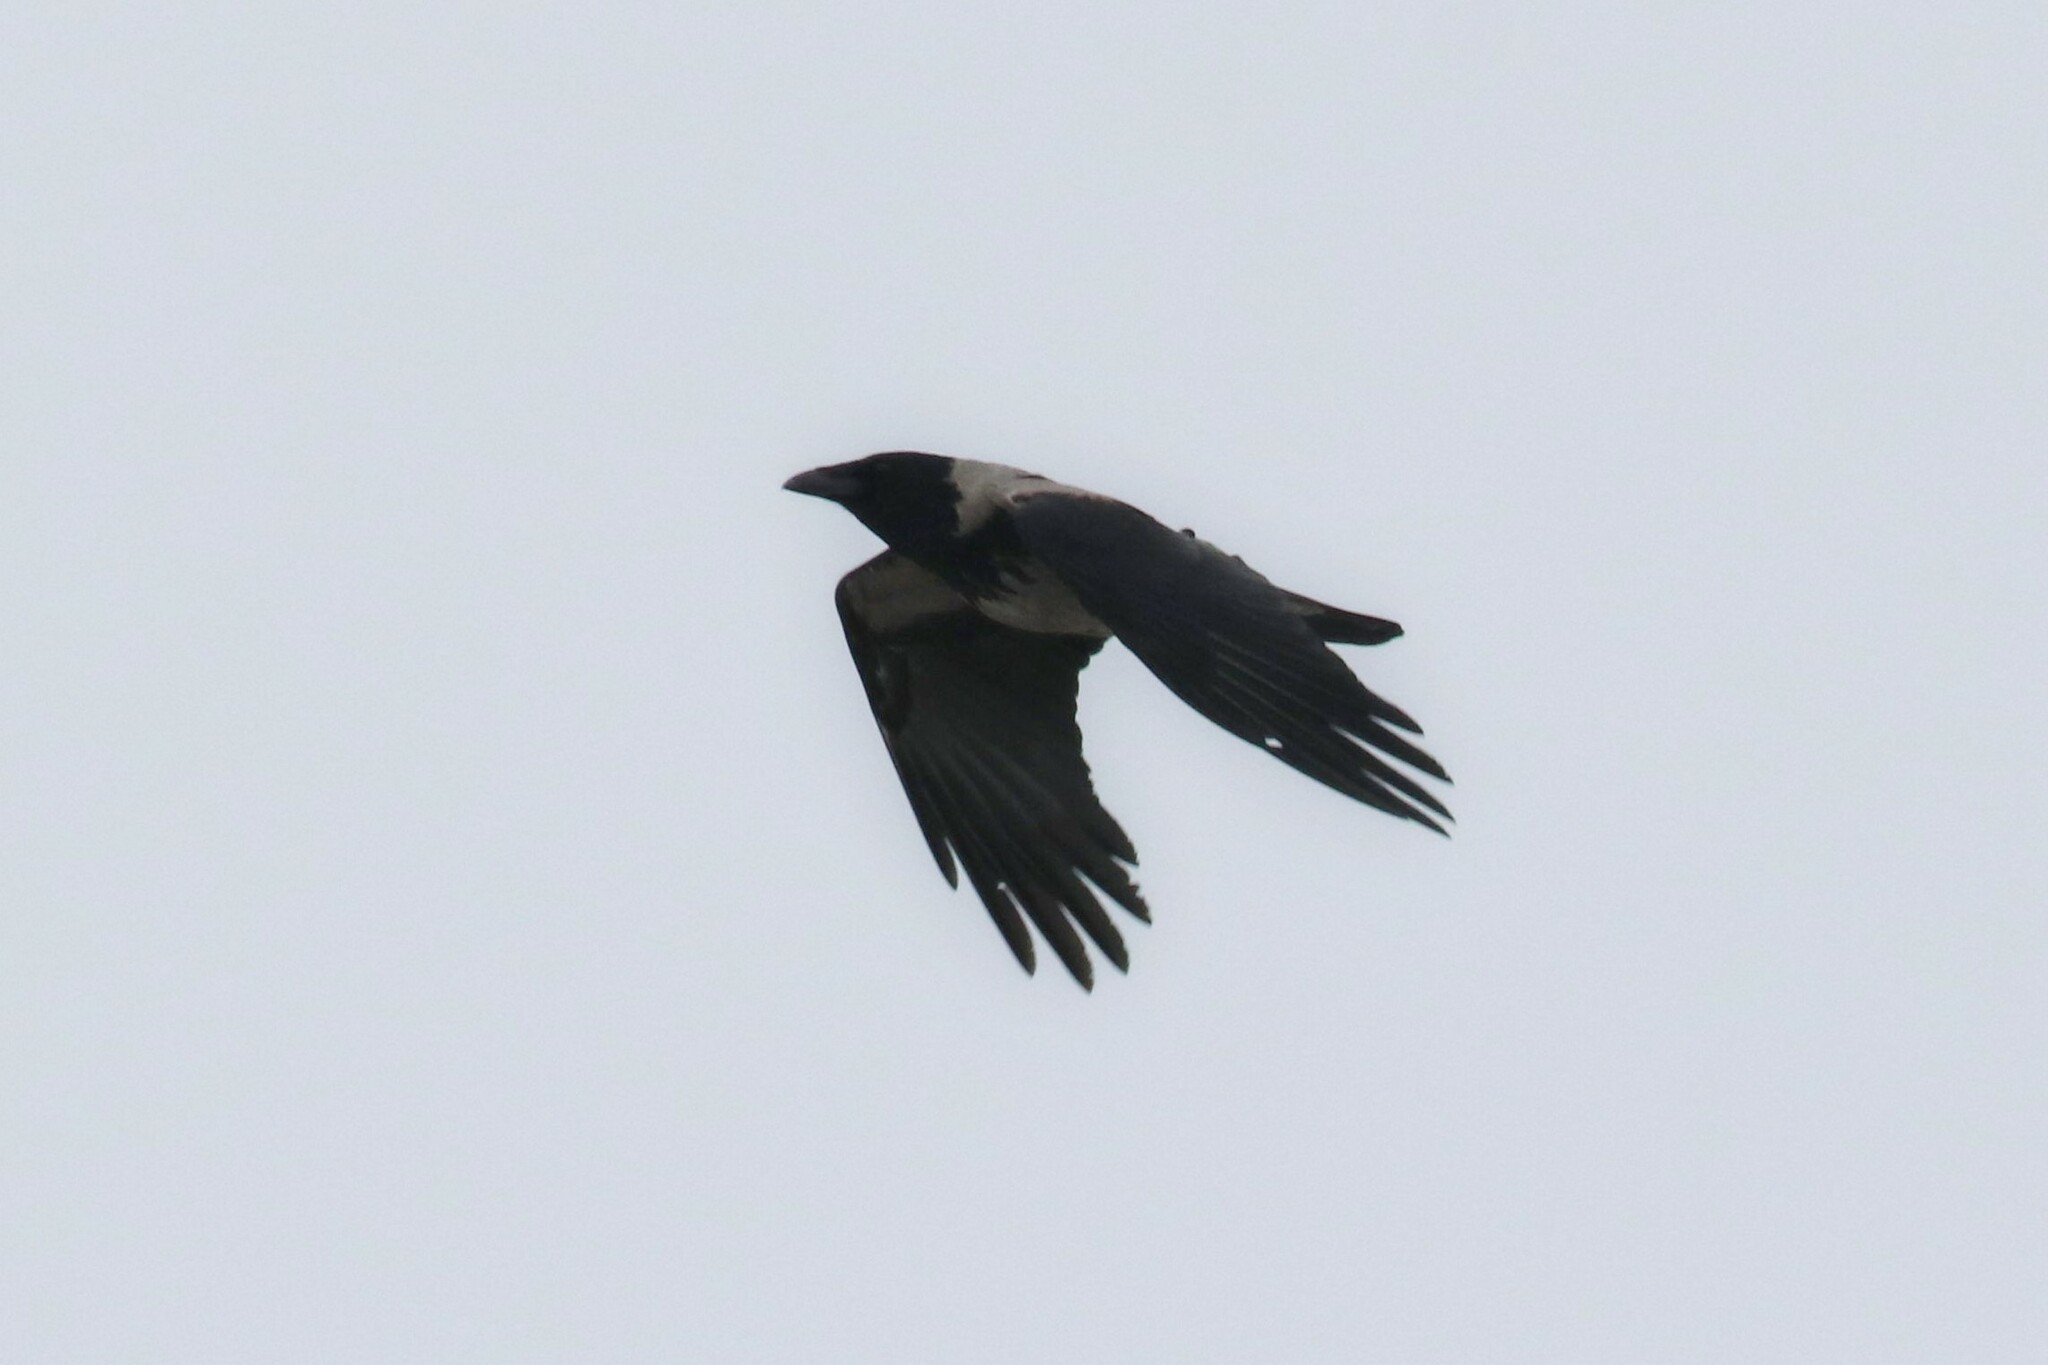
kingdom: Animalia
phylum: Chordata
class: Aves
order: Passeriformes
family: Corvidae
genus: Corvus
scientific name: Corvus cornix
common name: Hooded crow
